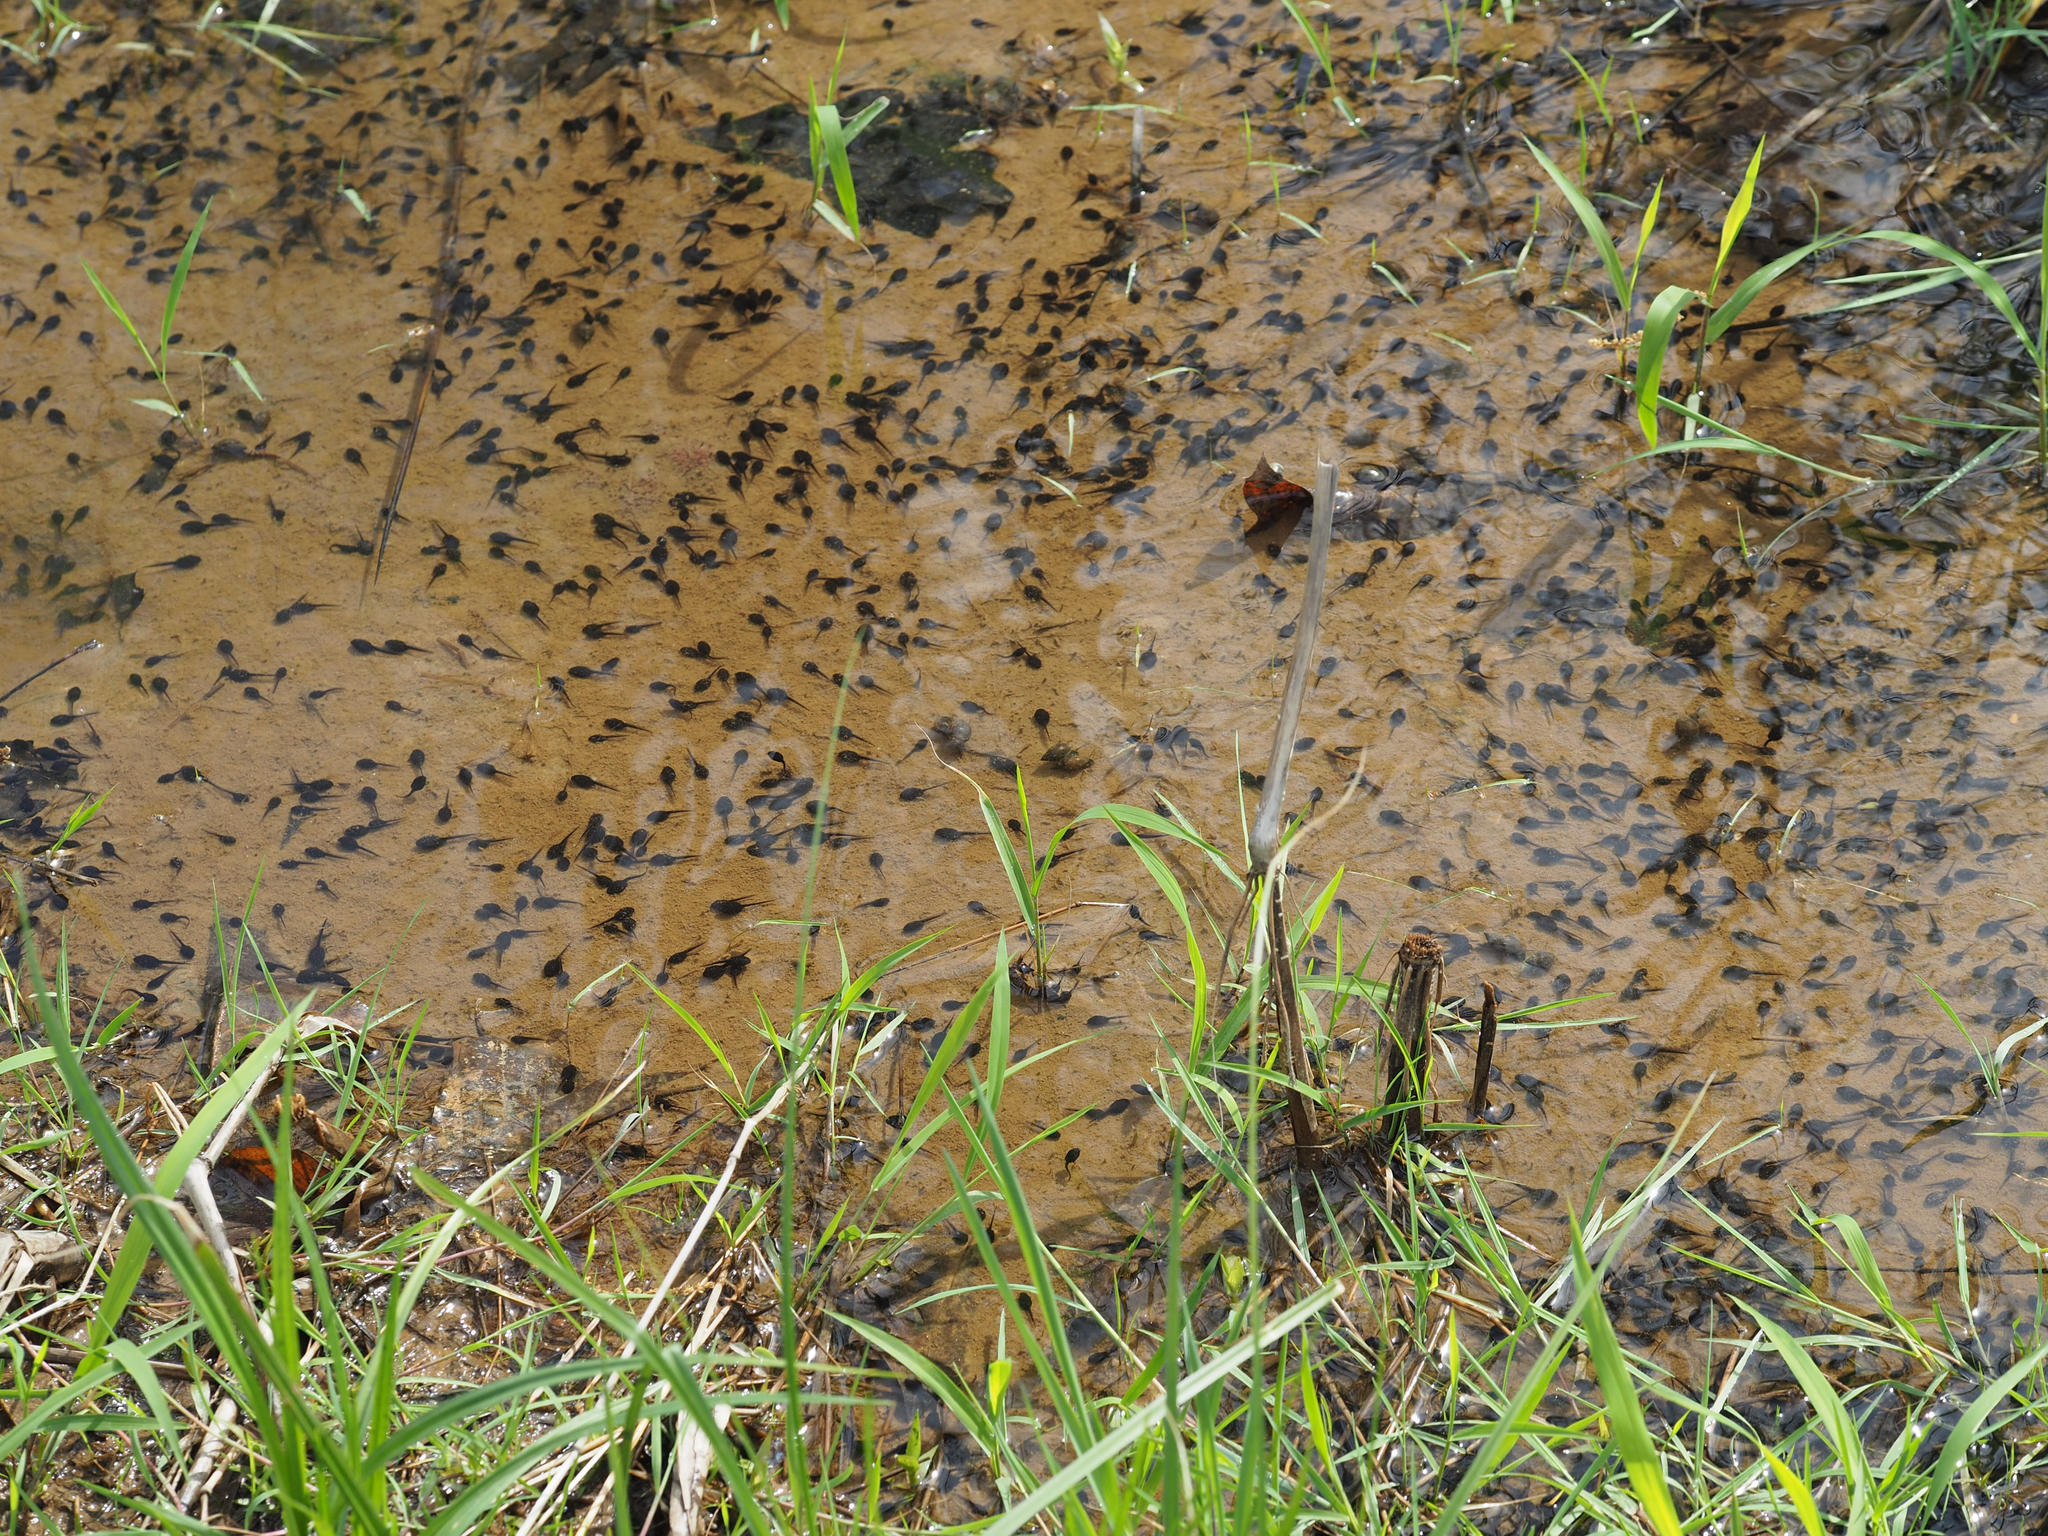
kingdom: Animalia
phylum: Chordata
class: Amphibia
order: Anura
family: Bufonidae
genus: Anaxyrus
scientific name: Anaxyrus americanus
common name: American toad
